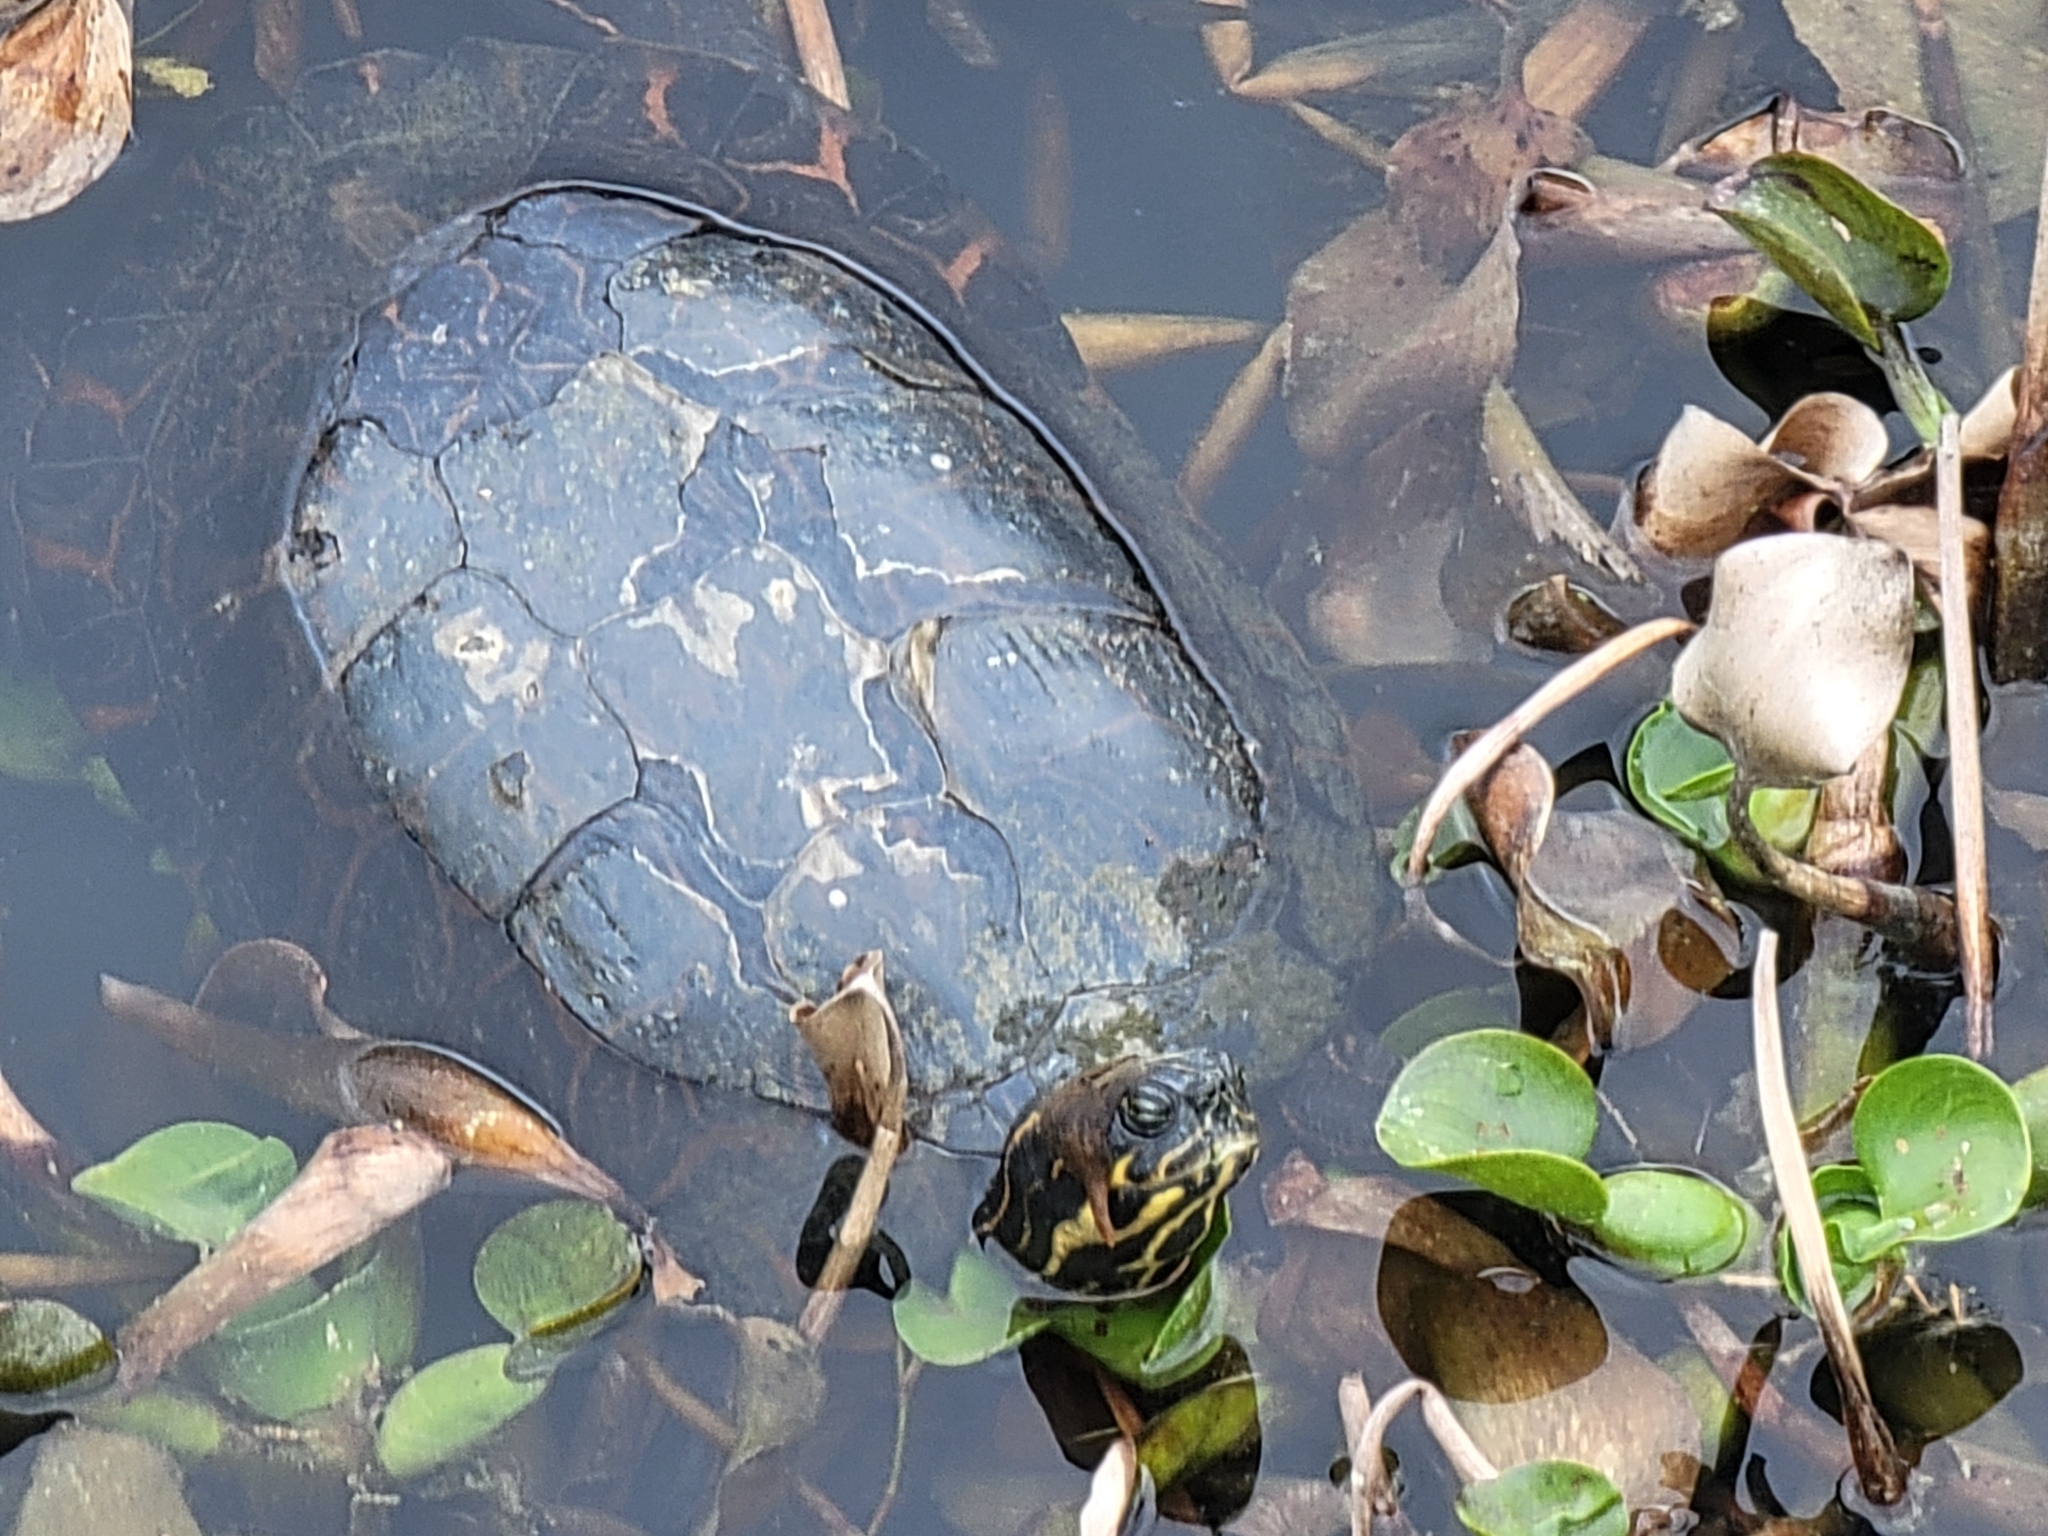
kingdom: Animalia
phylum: Chordata
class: Testudines
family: Emydidae
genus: Pseudemys
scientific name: Pseudemys concinna
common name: Eastern river cooter
